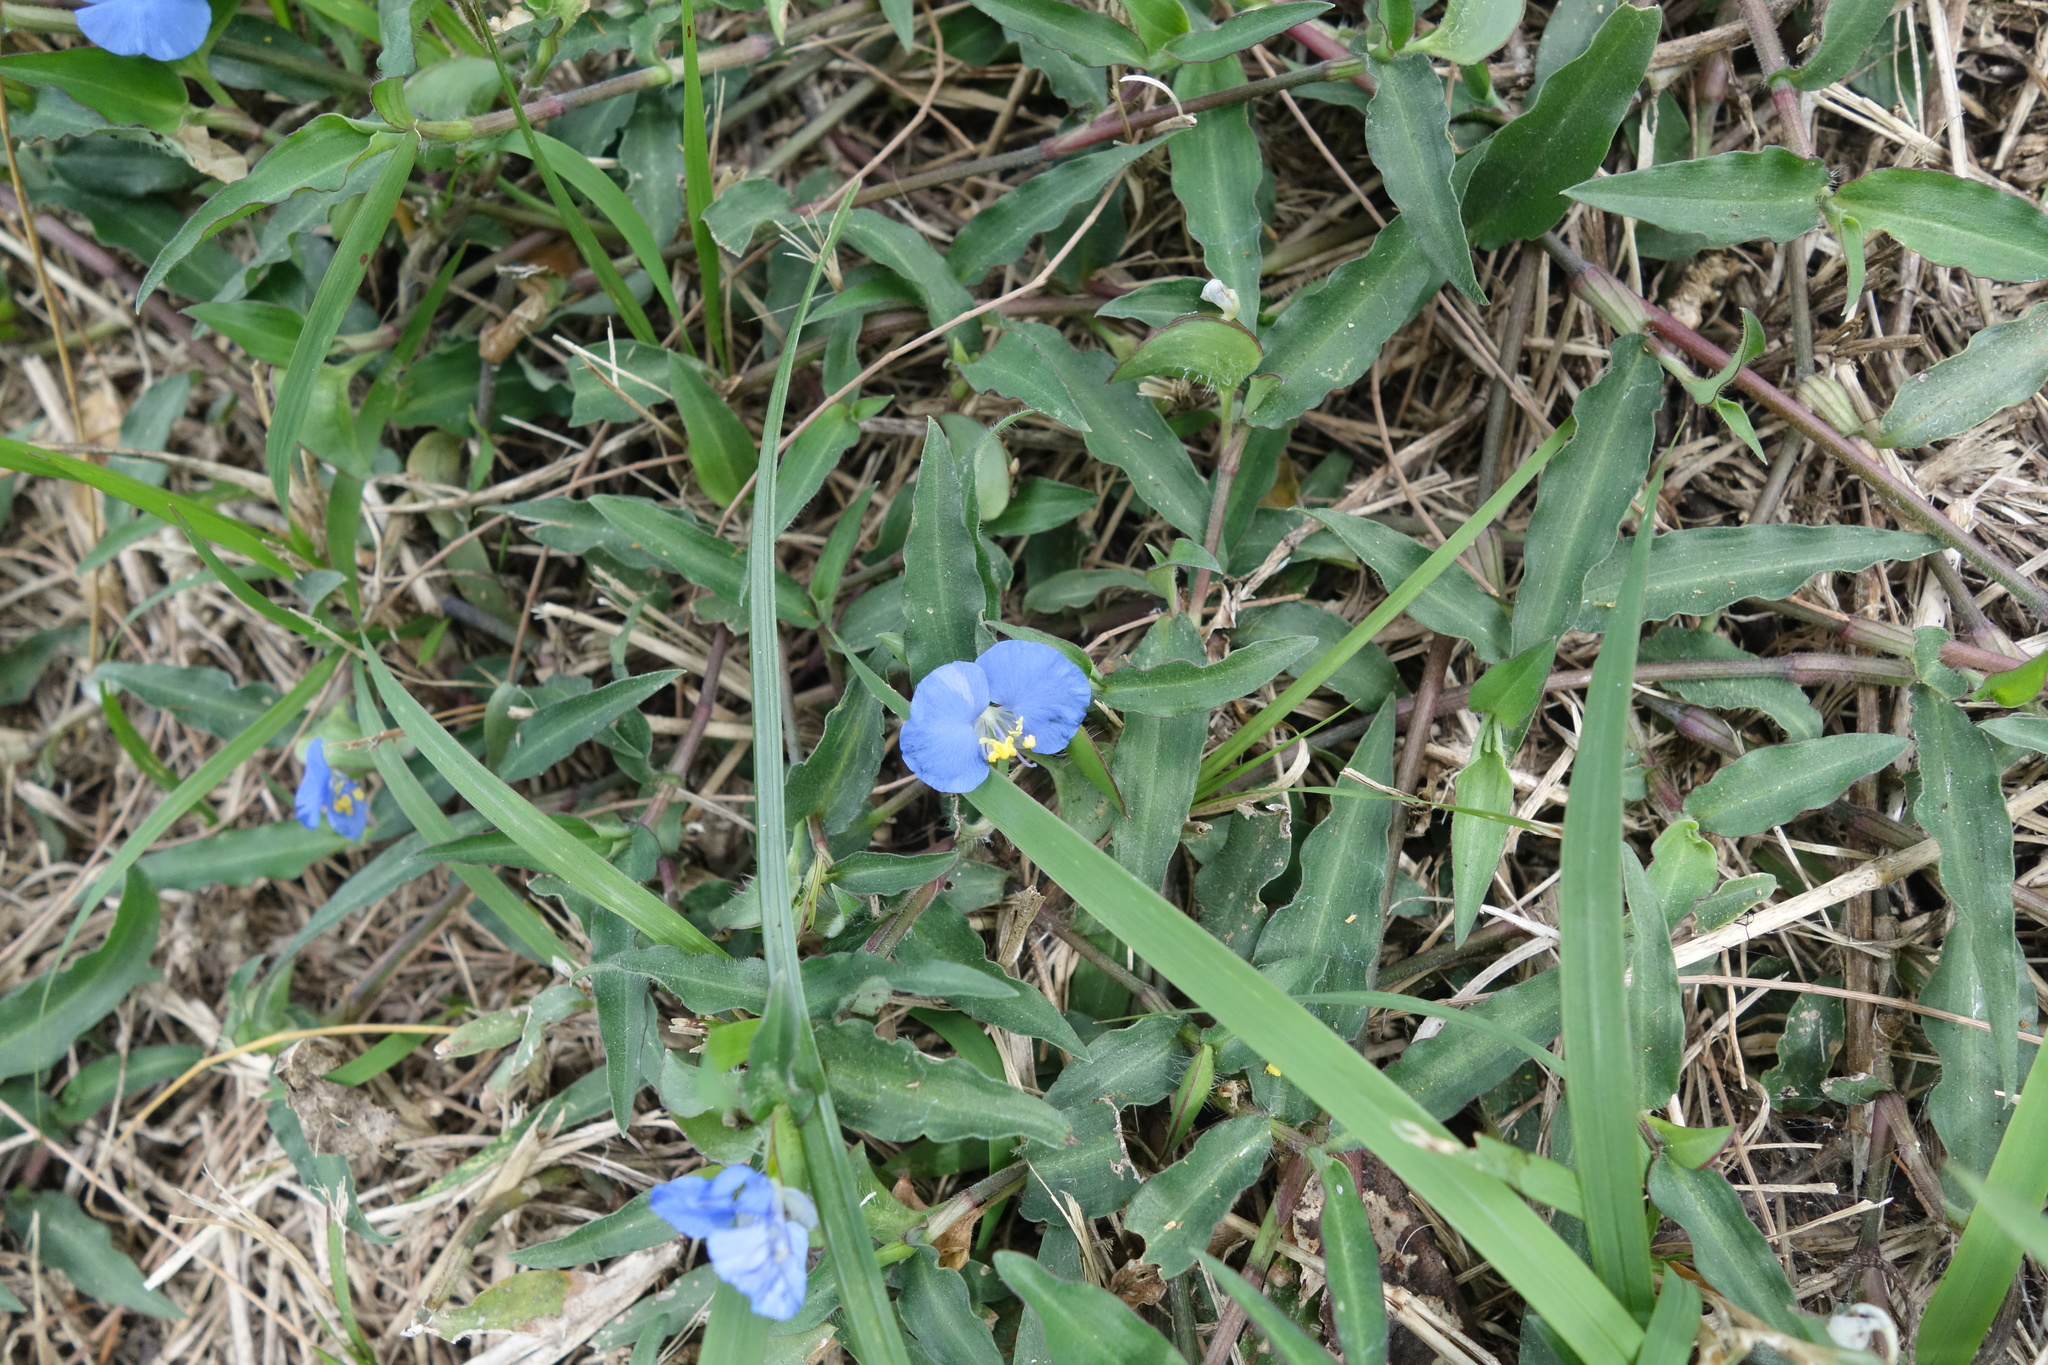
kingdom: Plantae
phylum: Tracheophyta
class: Liliopsida
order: Commelinales
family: Commelinaceae
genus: Commelina
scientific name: Commelina auriculata
